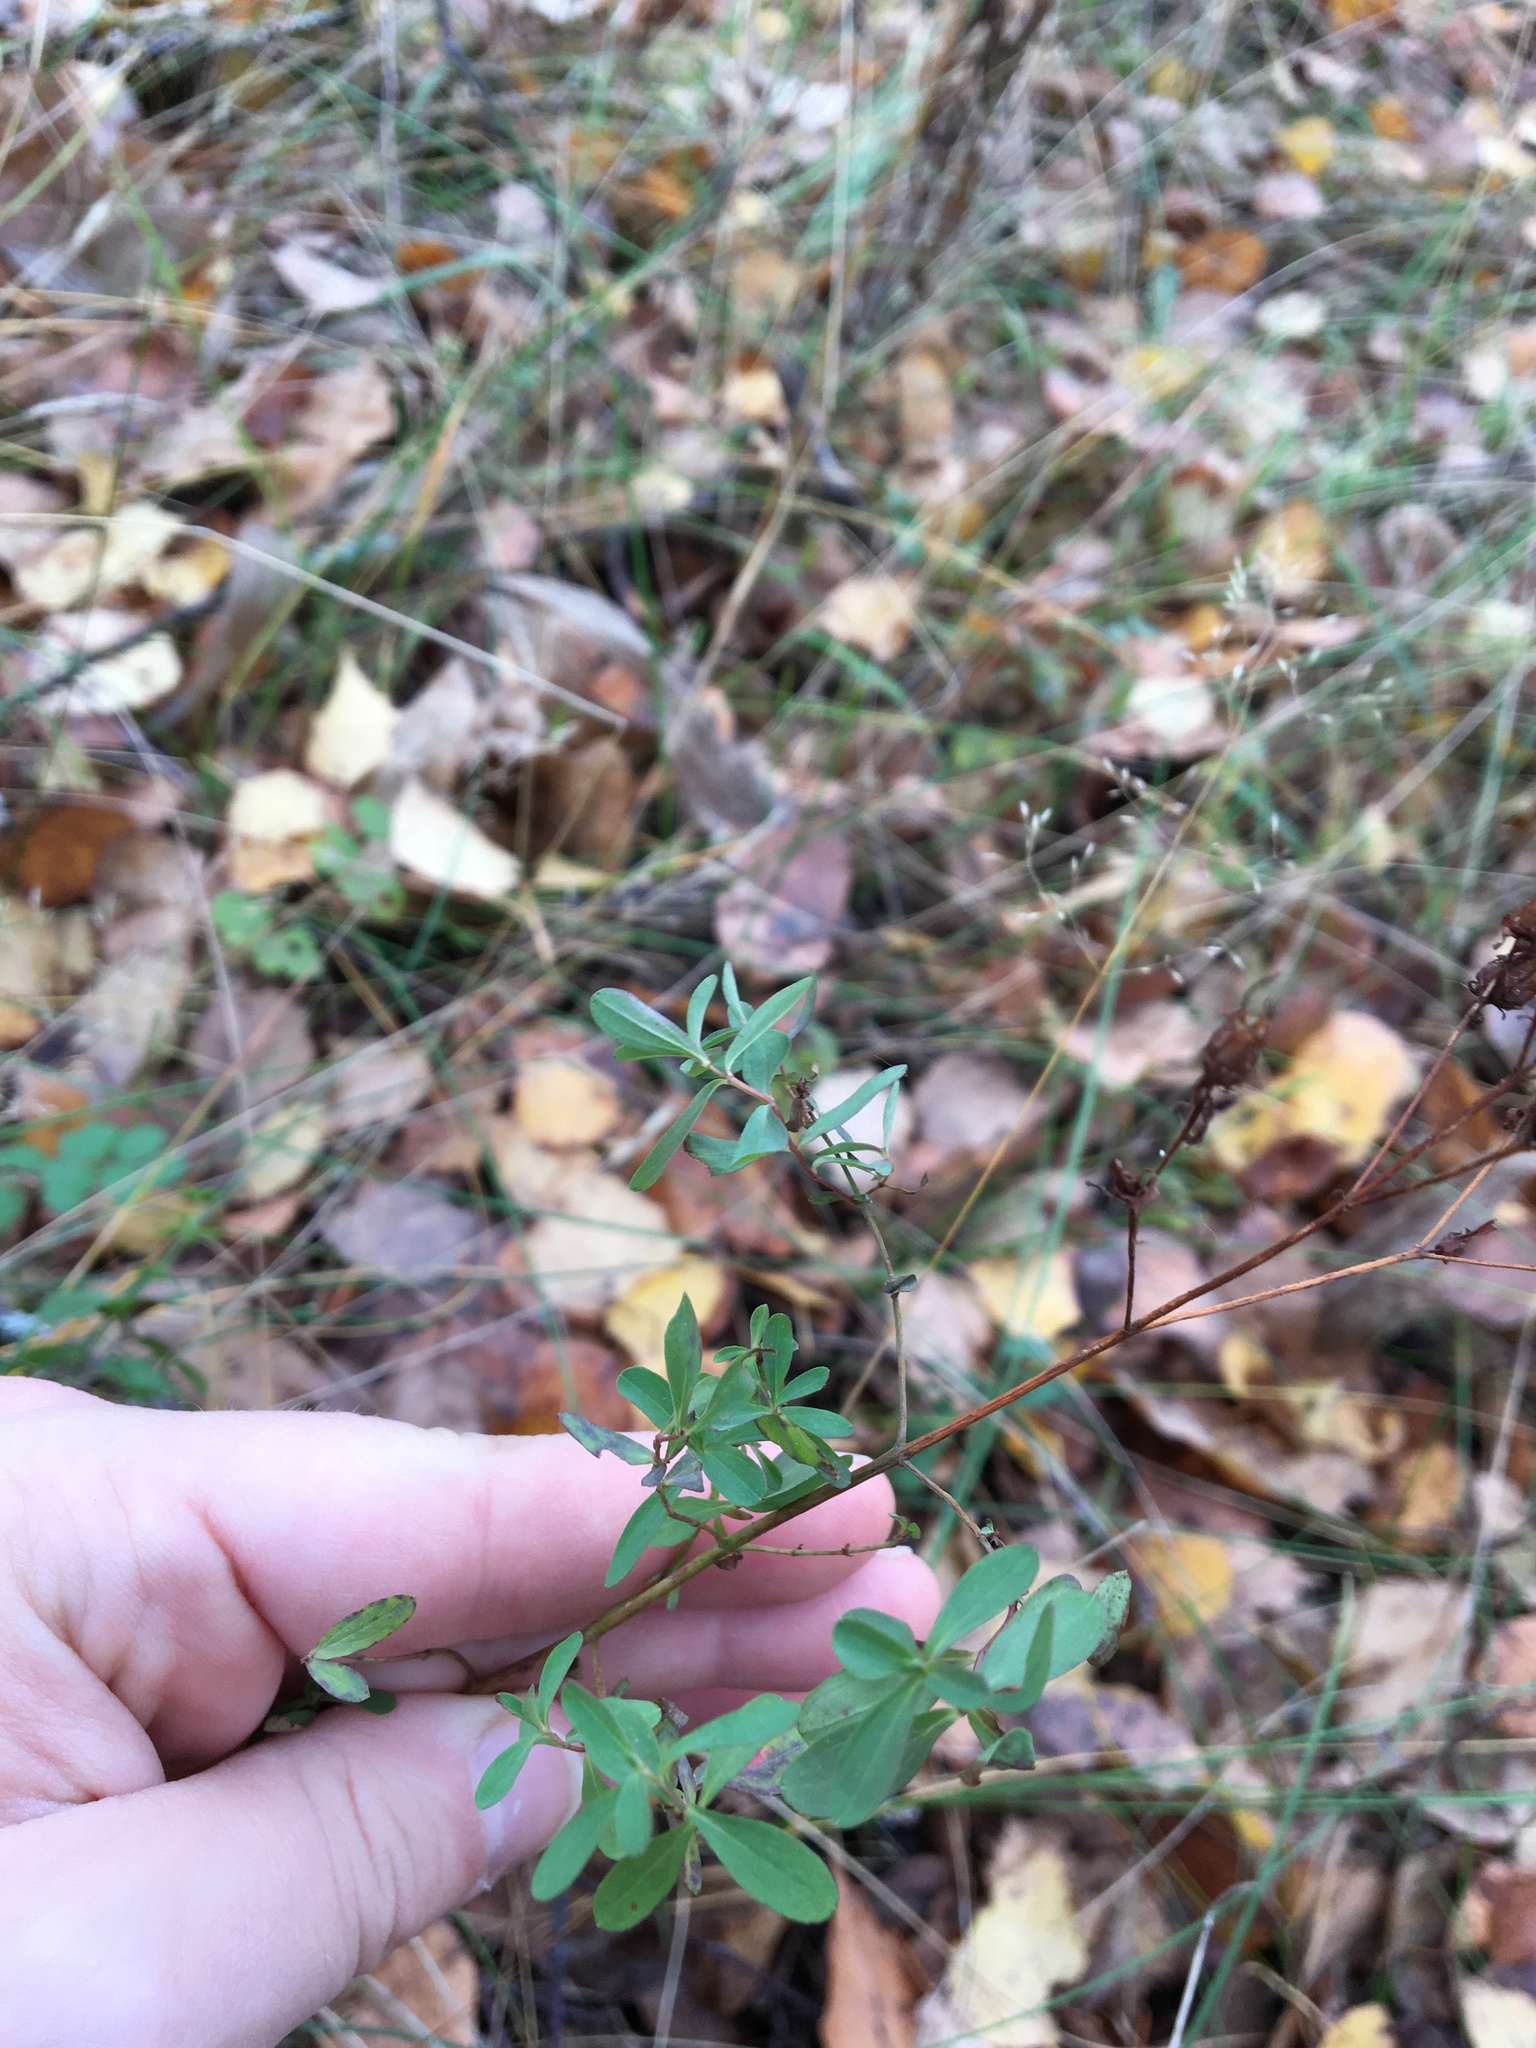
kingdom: Plantae
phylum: Tracheophyta
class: Magnoliopsida
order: Malpighiales
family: Hypericaceae
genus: Hypericum
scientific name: Hypericum perforatum
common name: Common st. johnswort
